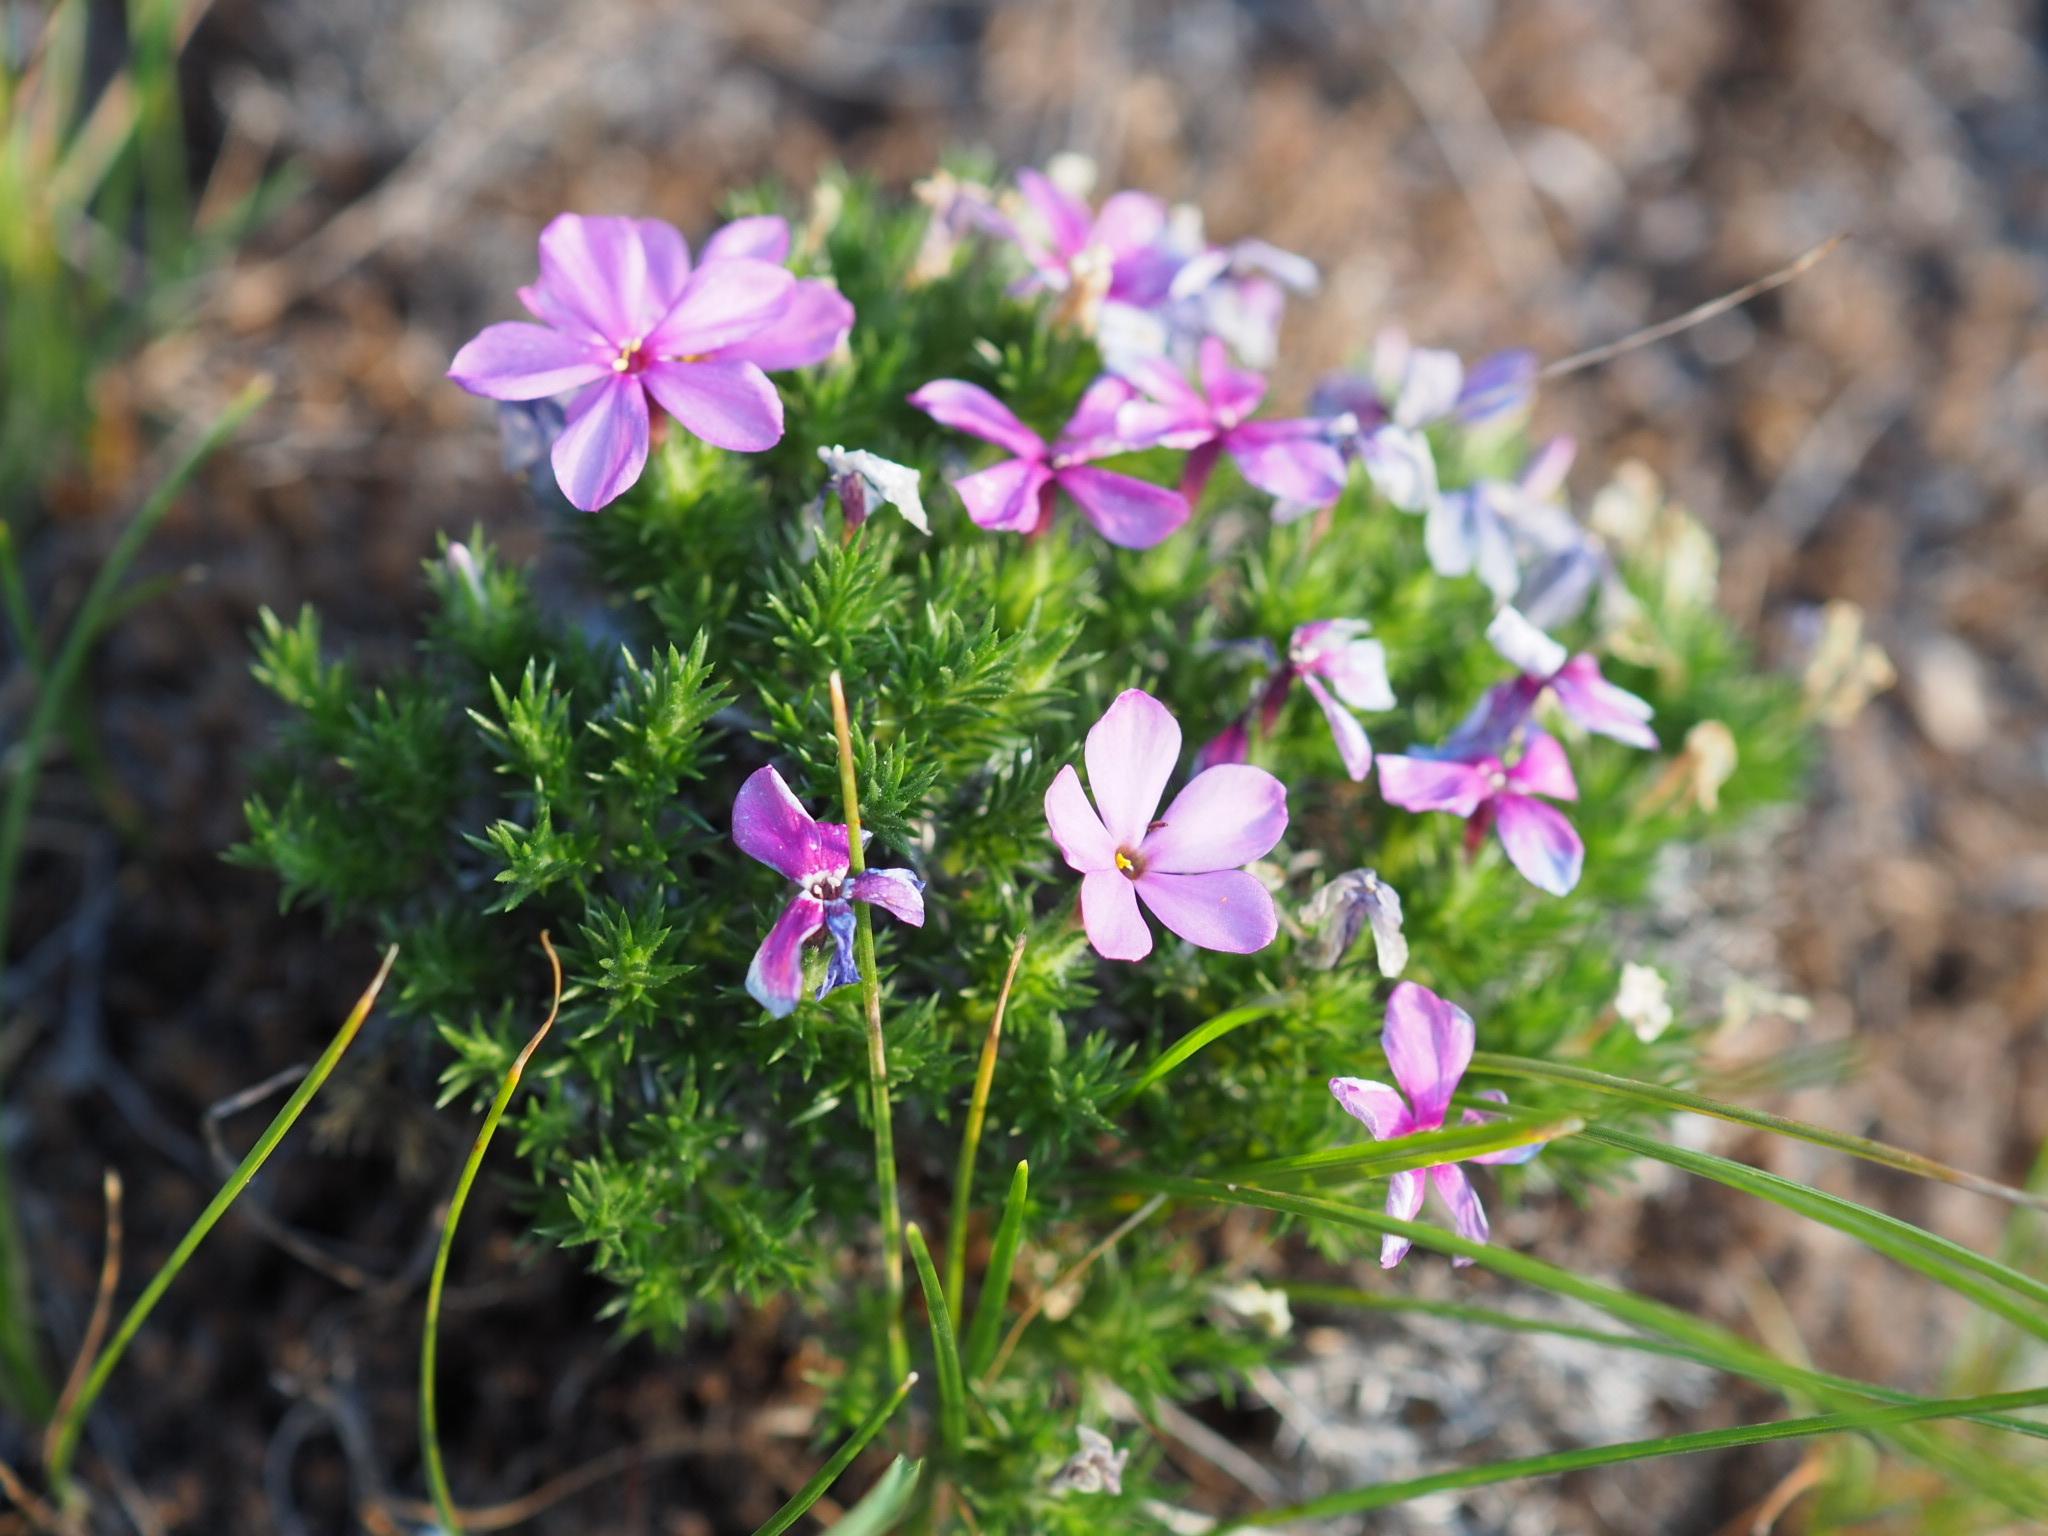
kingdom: Plantae
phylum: Tracheophyta
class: Magnoliopsida
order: Ericales
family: Polemoniaceae
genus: Phlox
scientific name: Phlox douglasii
